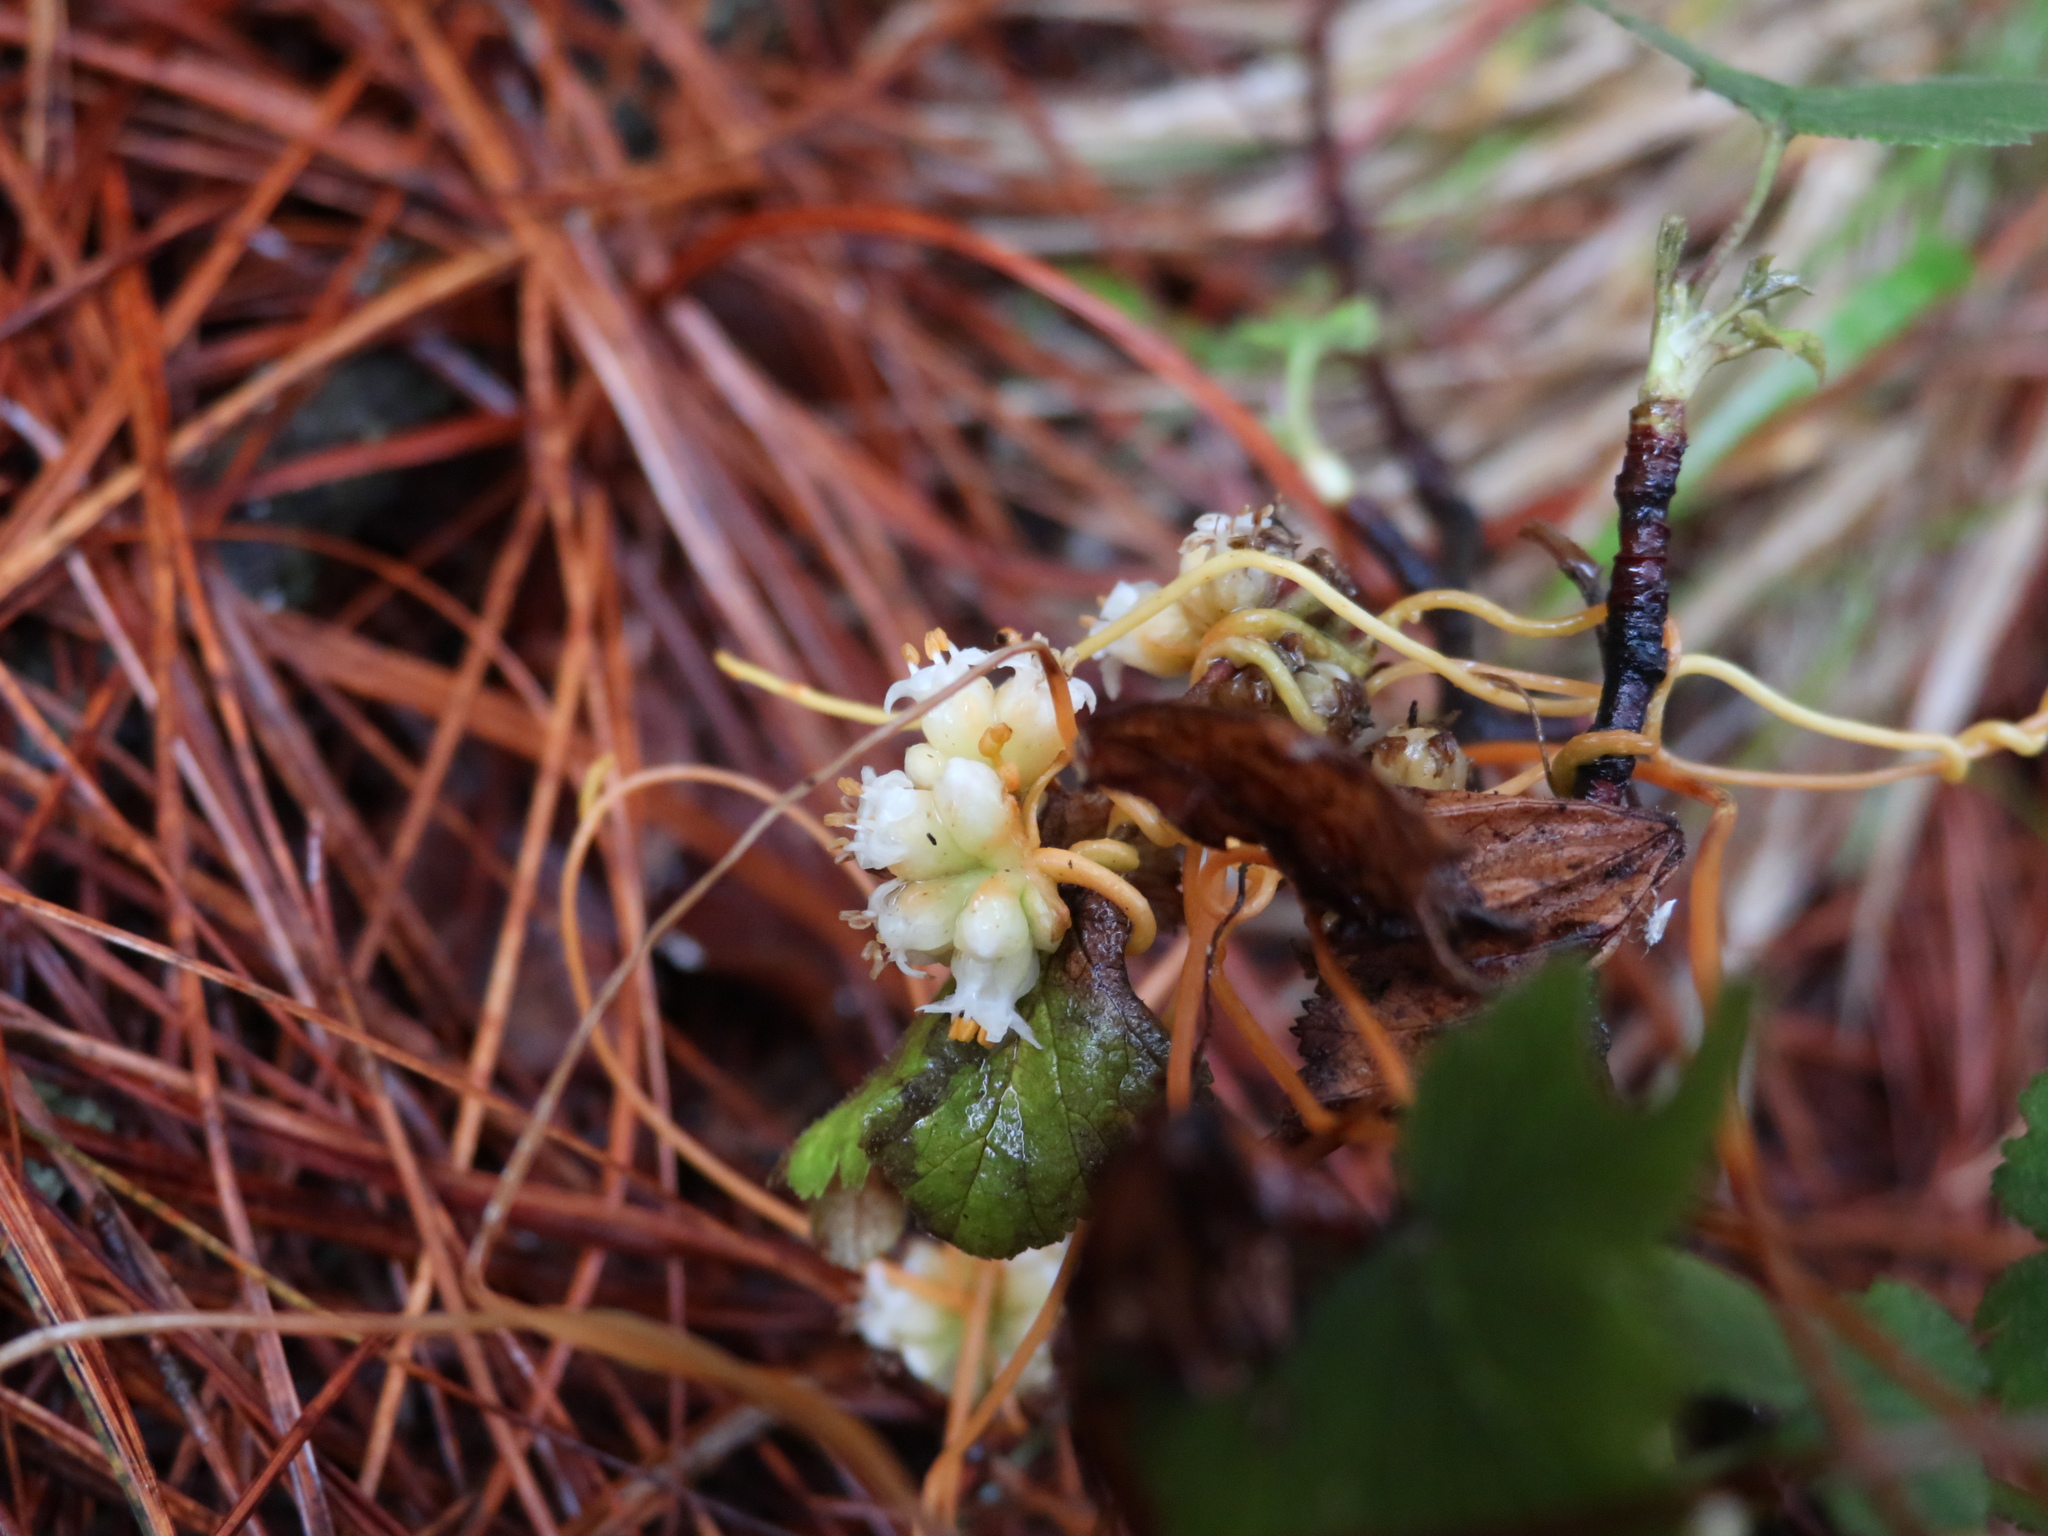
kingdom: Plantae
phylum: Tracheophyta
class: Magnoliopsida
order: Solanales
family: Convolvulaceae
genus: Cuscuta
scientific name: Cuscuta volcanica
